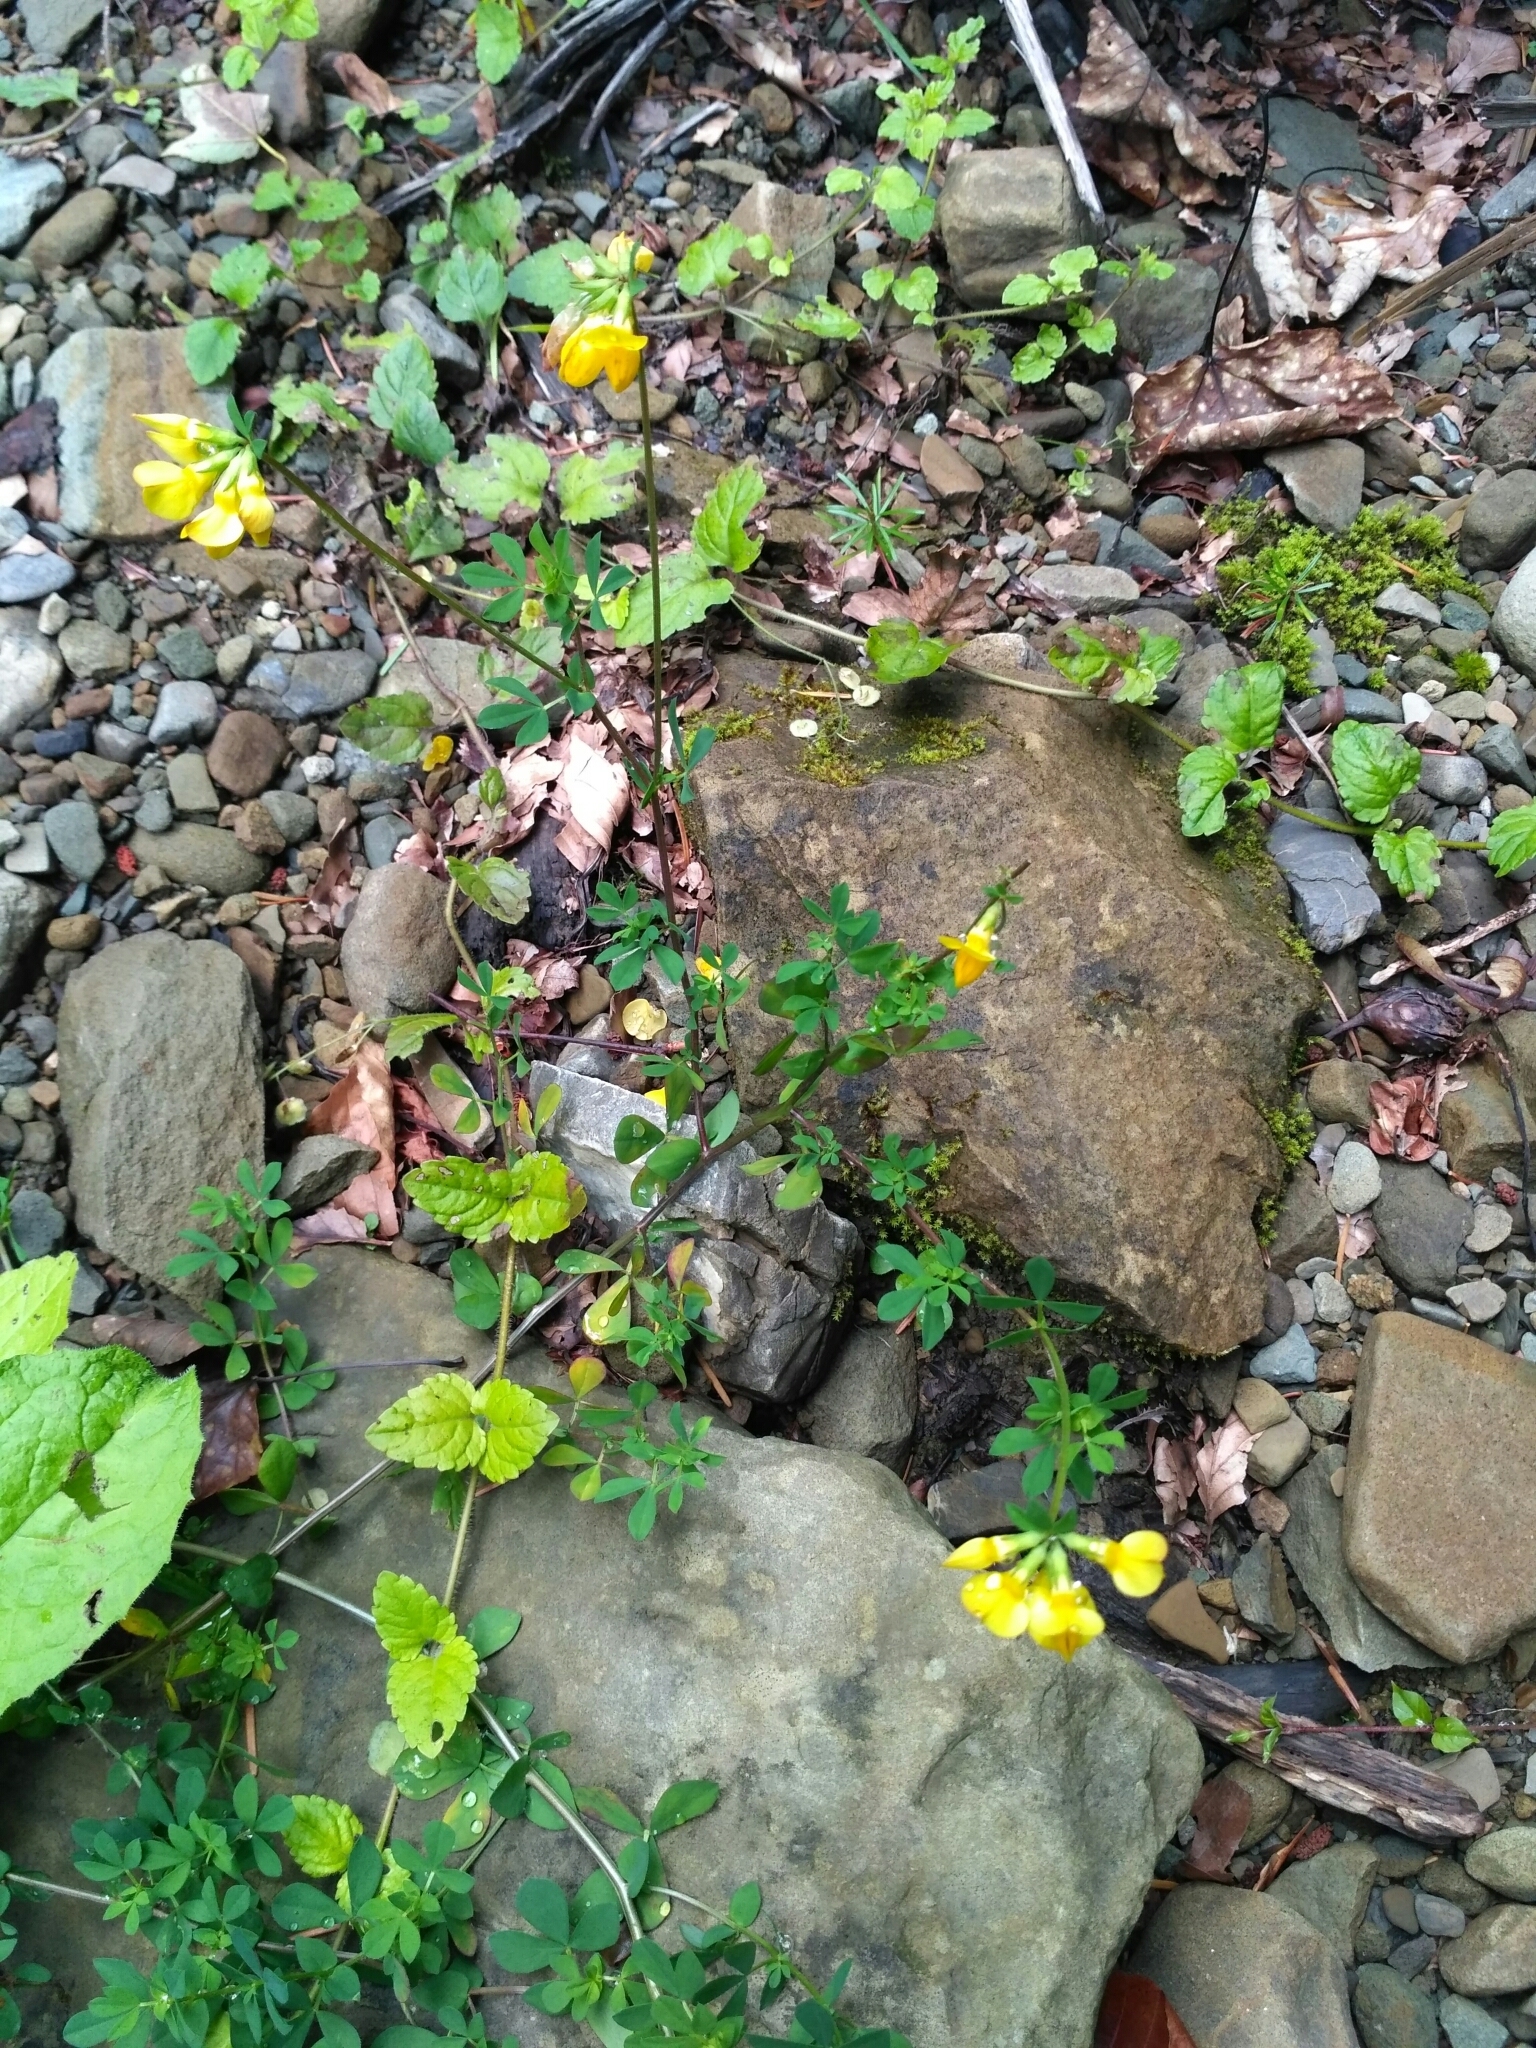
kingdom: Plantae
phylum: Tracheophyta
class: Magnoliopsida
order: Fabales
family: Fabaceae
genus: Lotus
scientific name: Lotus corniculatus
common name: Common bird's-foot-trefoil
